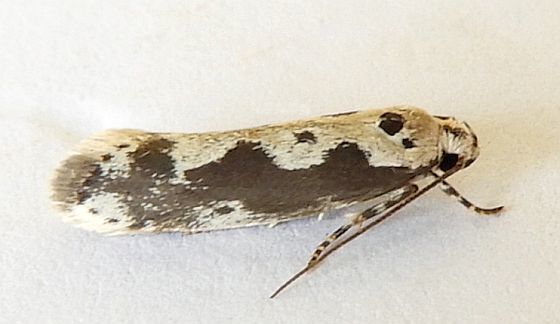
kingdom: Animalia
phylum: Arthropoda
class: Insecta
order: Lepidoptera
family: Ethmiidae
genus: Ethmia
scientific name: Ethmia hodgesella
